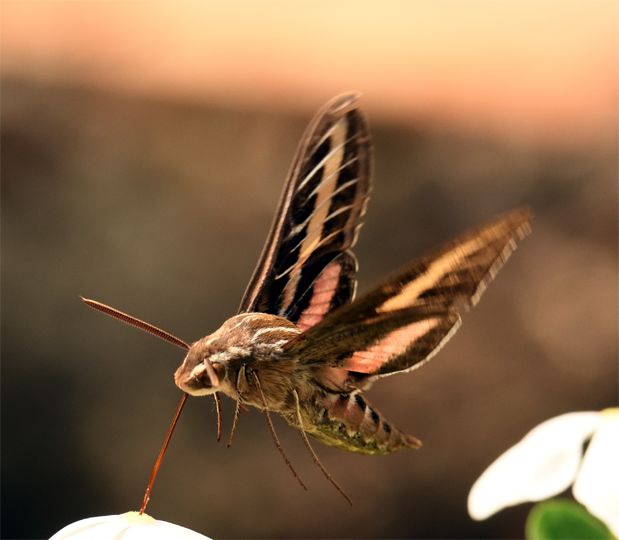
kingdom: Animalia
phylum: Arthropoda
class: Insecta
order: Lepidoptera
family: Sphingidae
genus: Hyles
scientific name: Hyles lineata
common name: White-lined sphinx
